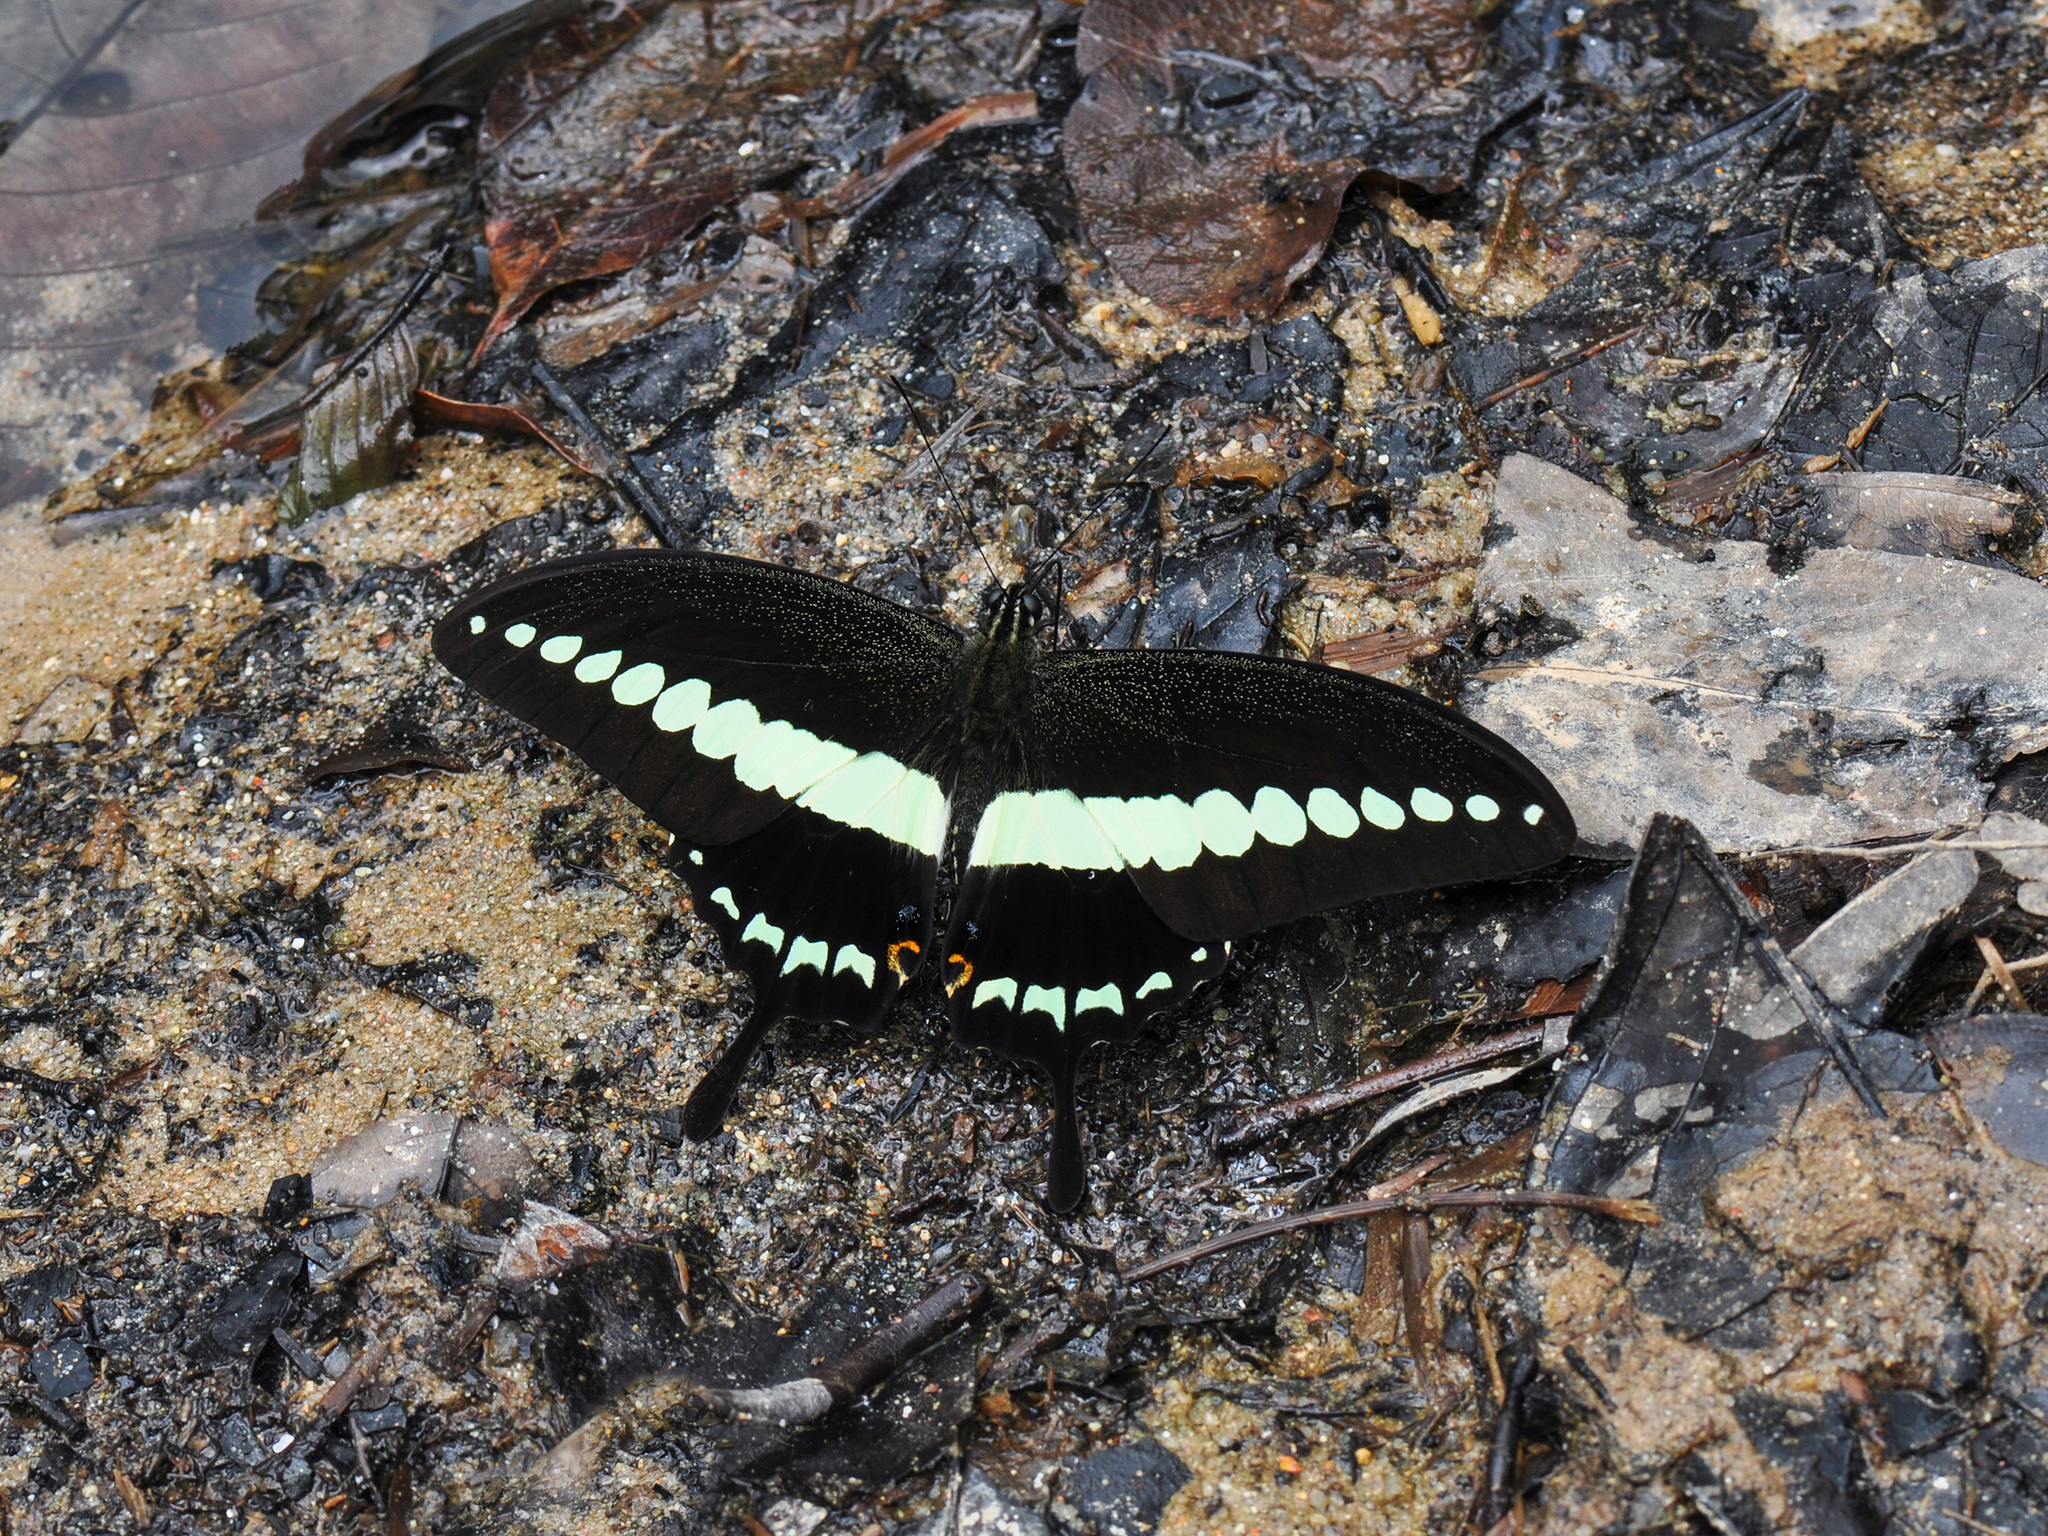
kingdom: Animalia
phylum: Arthropoda
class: Insecta
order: Lepidoptera
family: Papilionidae
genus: Papilio
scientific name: Papilio demolion
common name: Banded swallowtail
